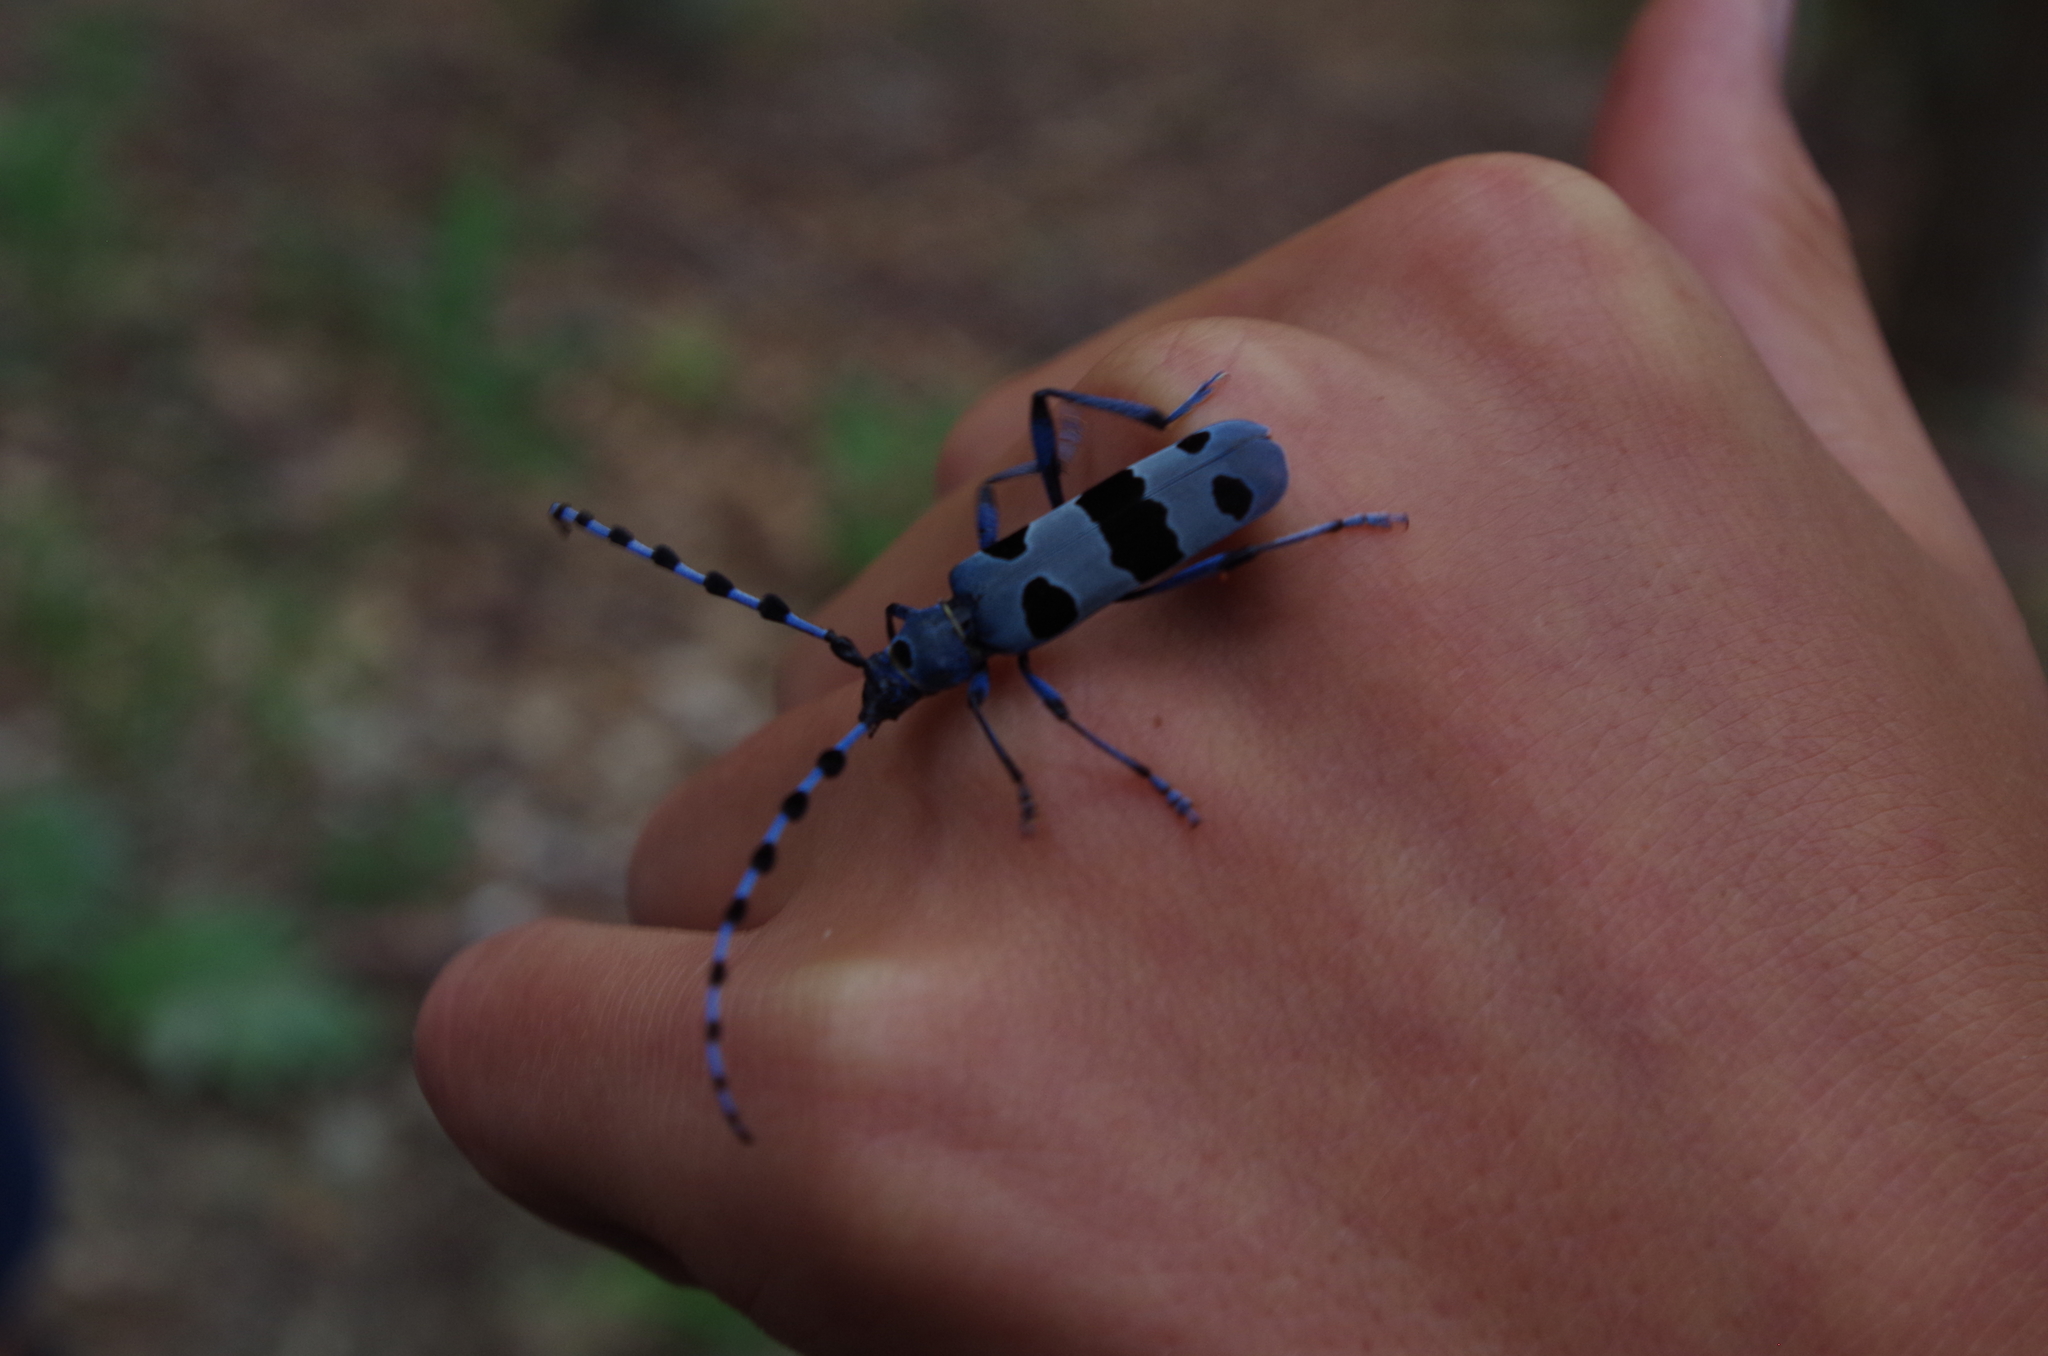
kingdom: Animalia
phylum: Arthropoda
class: Insecta
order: Coleoptera
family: Cerambycidae
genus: Rosalia
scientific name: Rosalia alpina
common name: Rosalia longicorn
